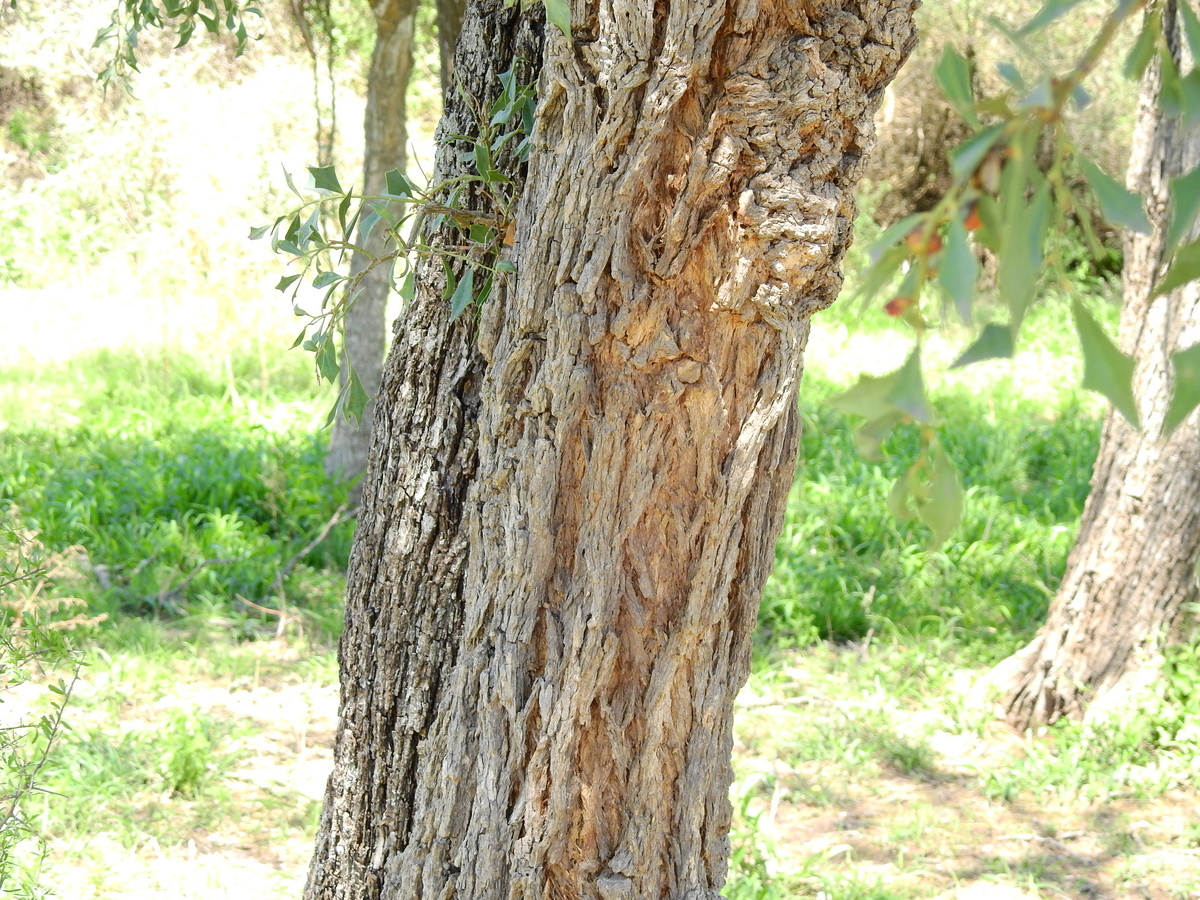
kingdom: Plantae
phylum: Tracheophyta
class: Magnoliopsida
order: Santalales
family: Cervantesiaceae
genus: Jodina
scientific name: Jodina rhombifolia
